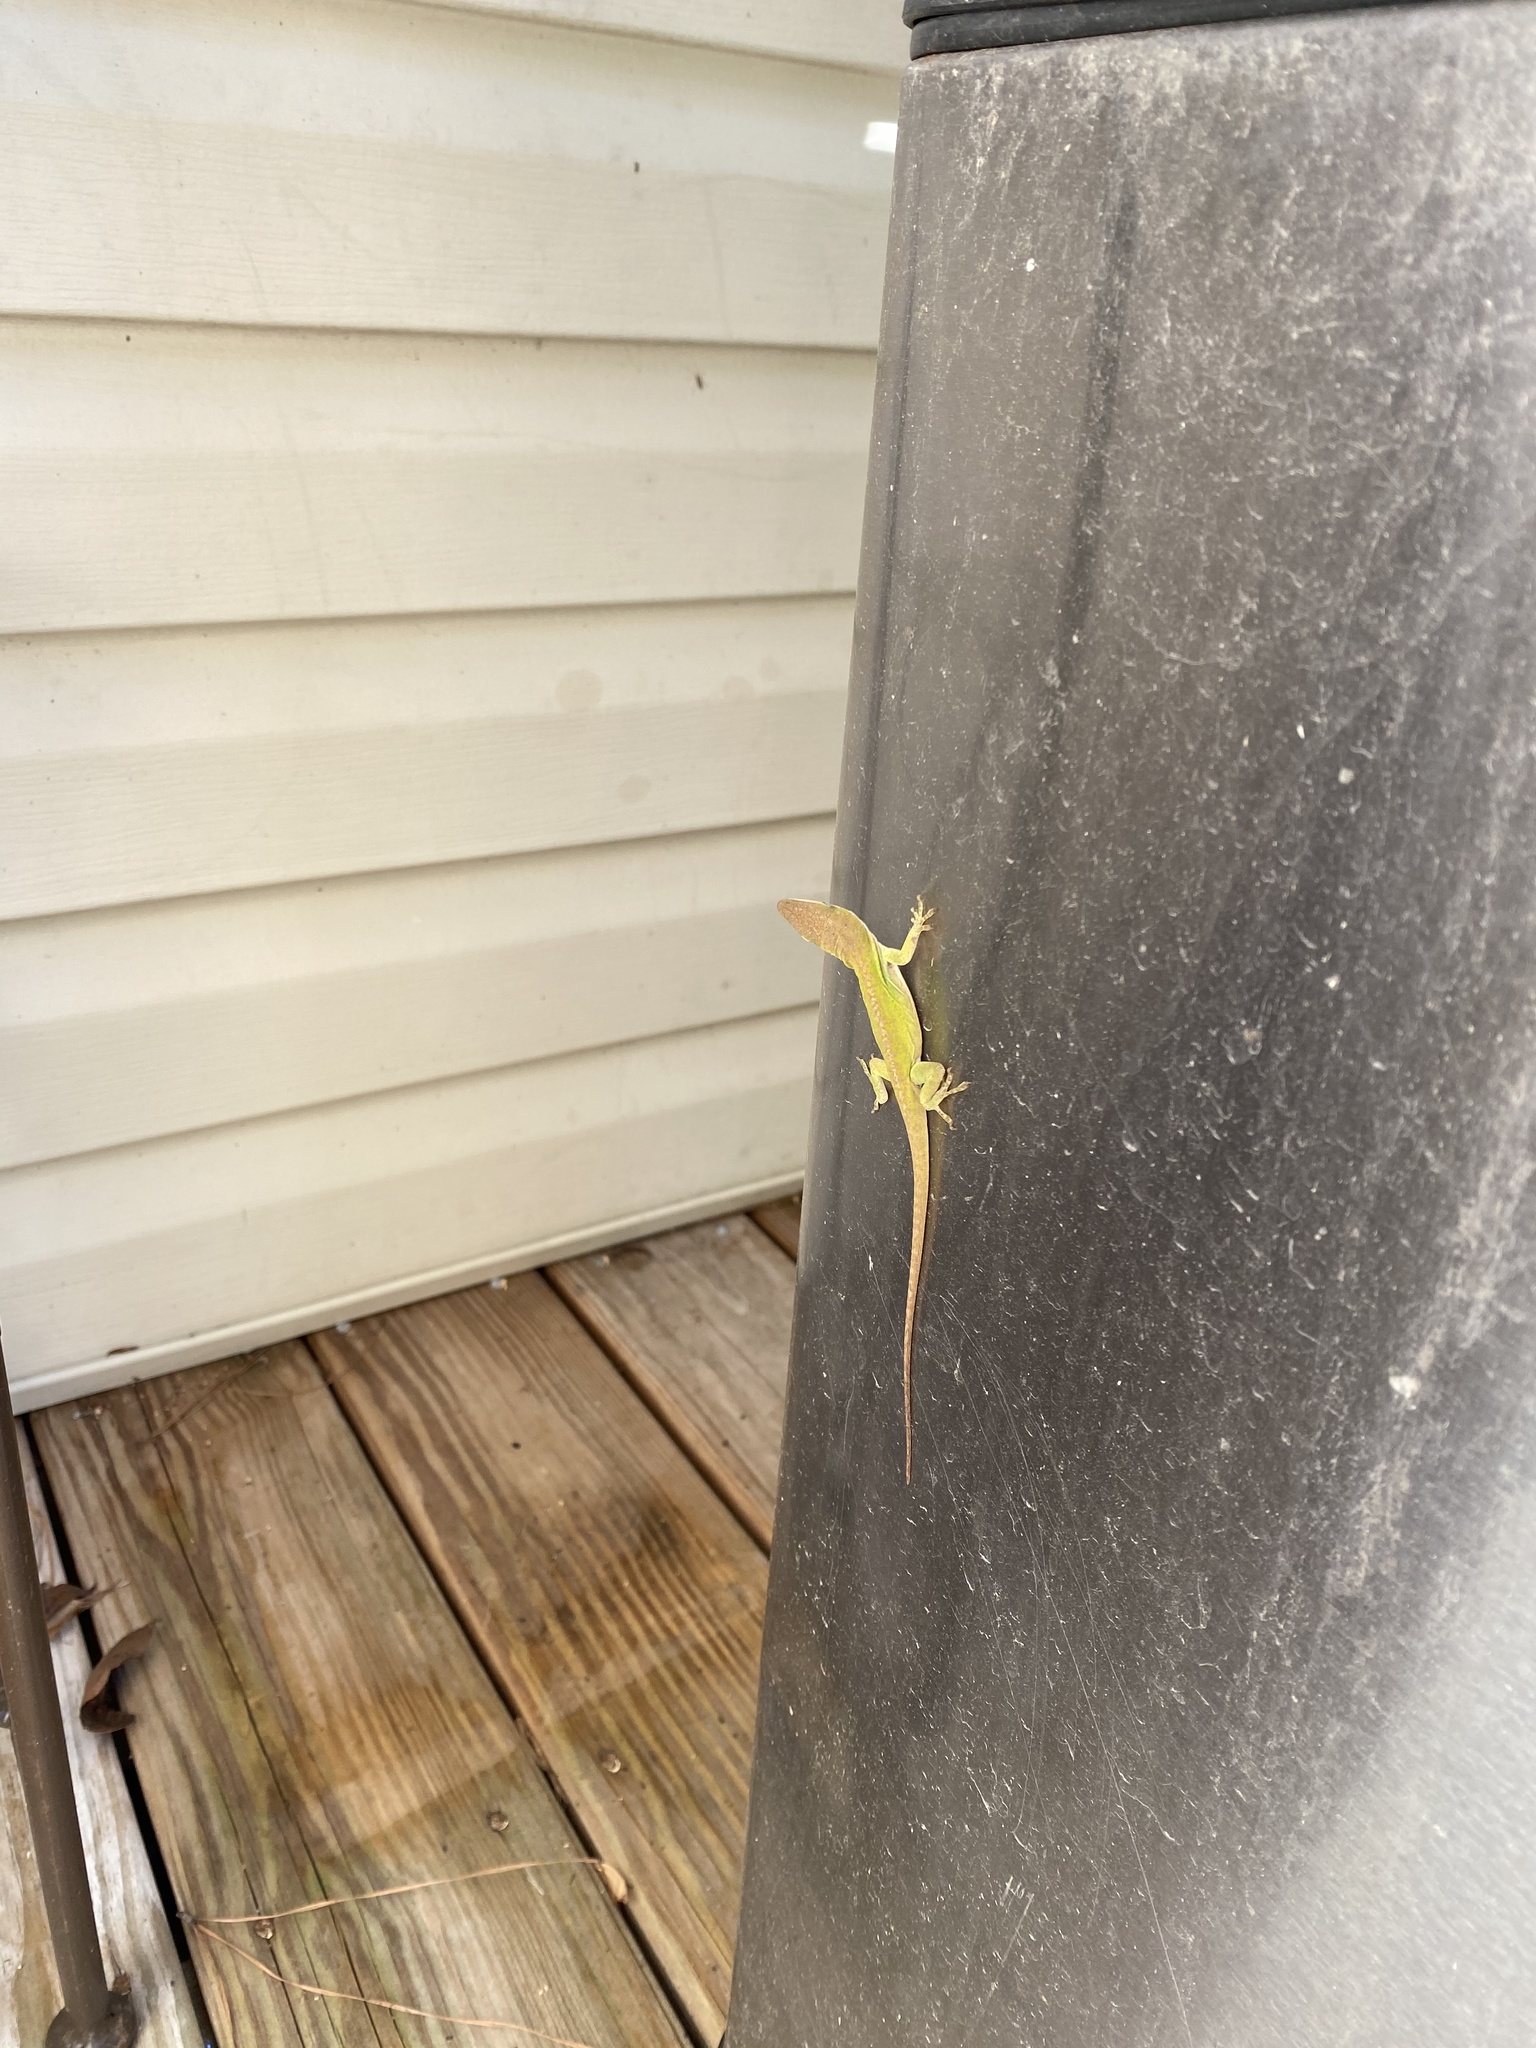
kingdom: Animalia
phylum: Chordata
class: Squamata
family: Dactyloidae
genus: Anolis
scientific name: Anolis carolinensis
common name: Green anole
